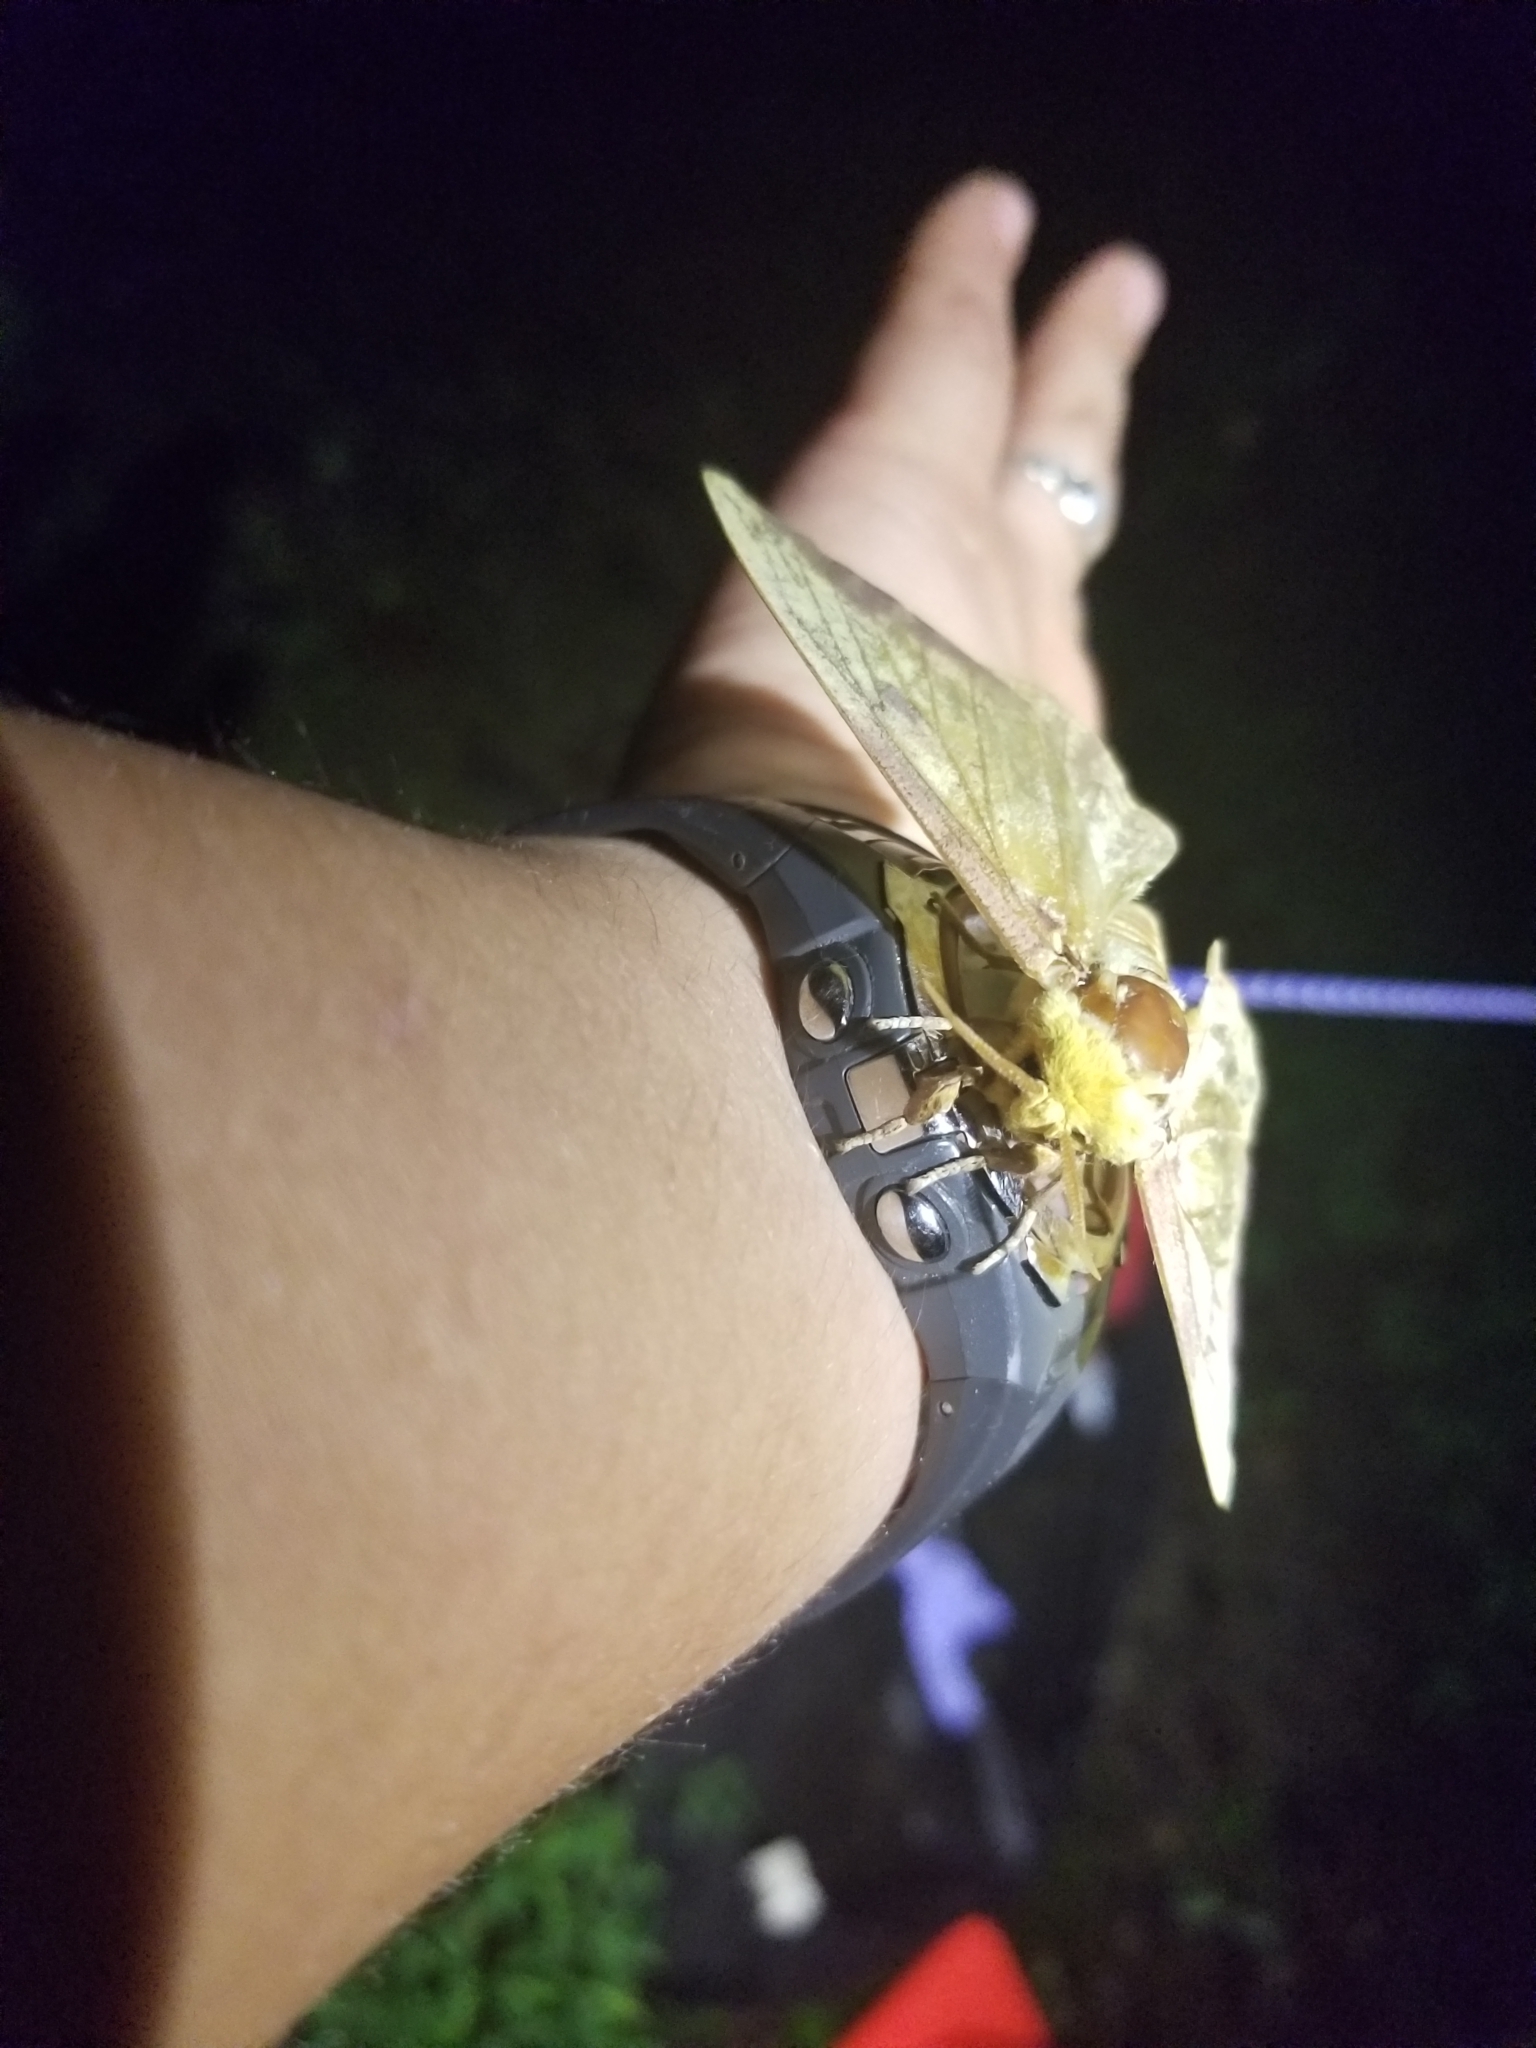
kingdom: Animalia
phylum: Arthropoda
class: Insecta
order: Lepidoptera
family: Saturniidae
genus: Eacles
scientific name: Eacles imperialis
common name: Imperial moth
